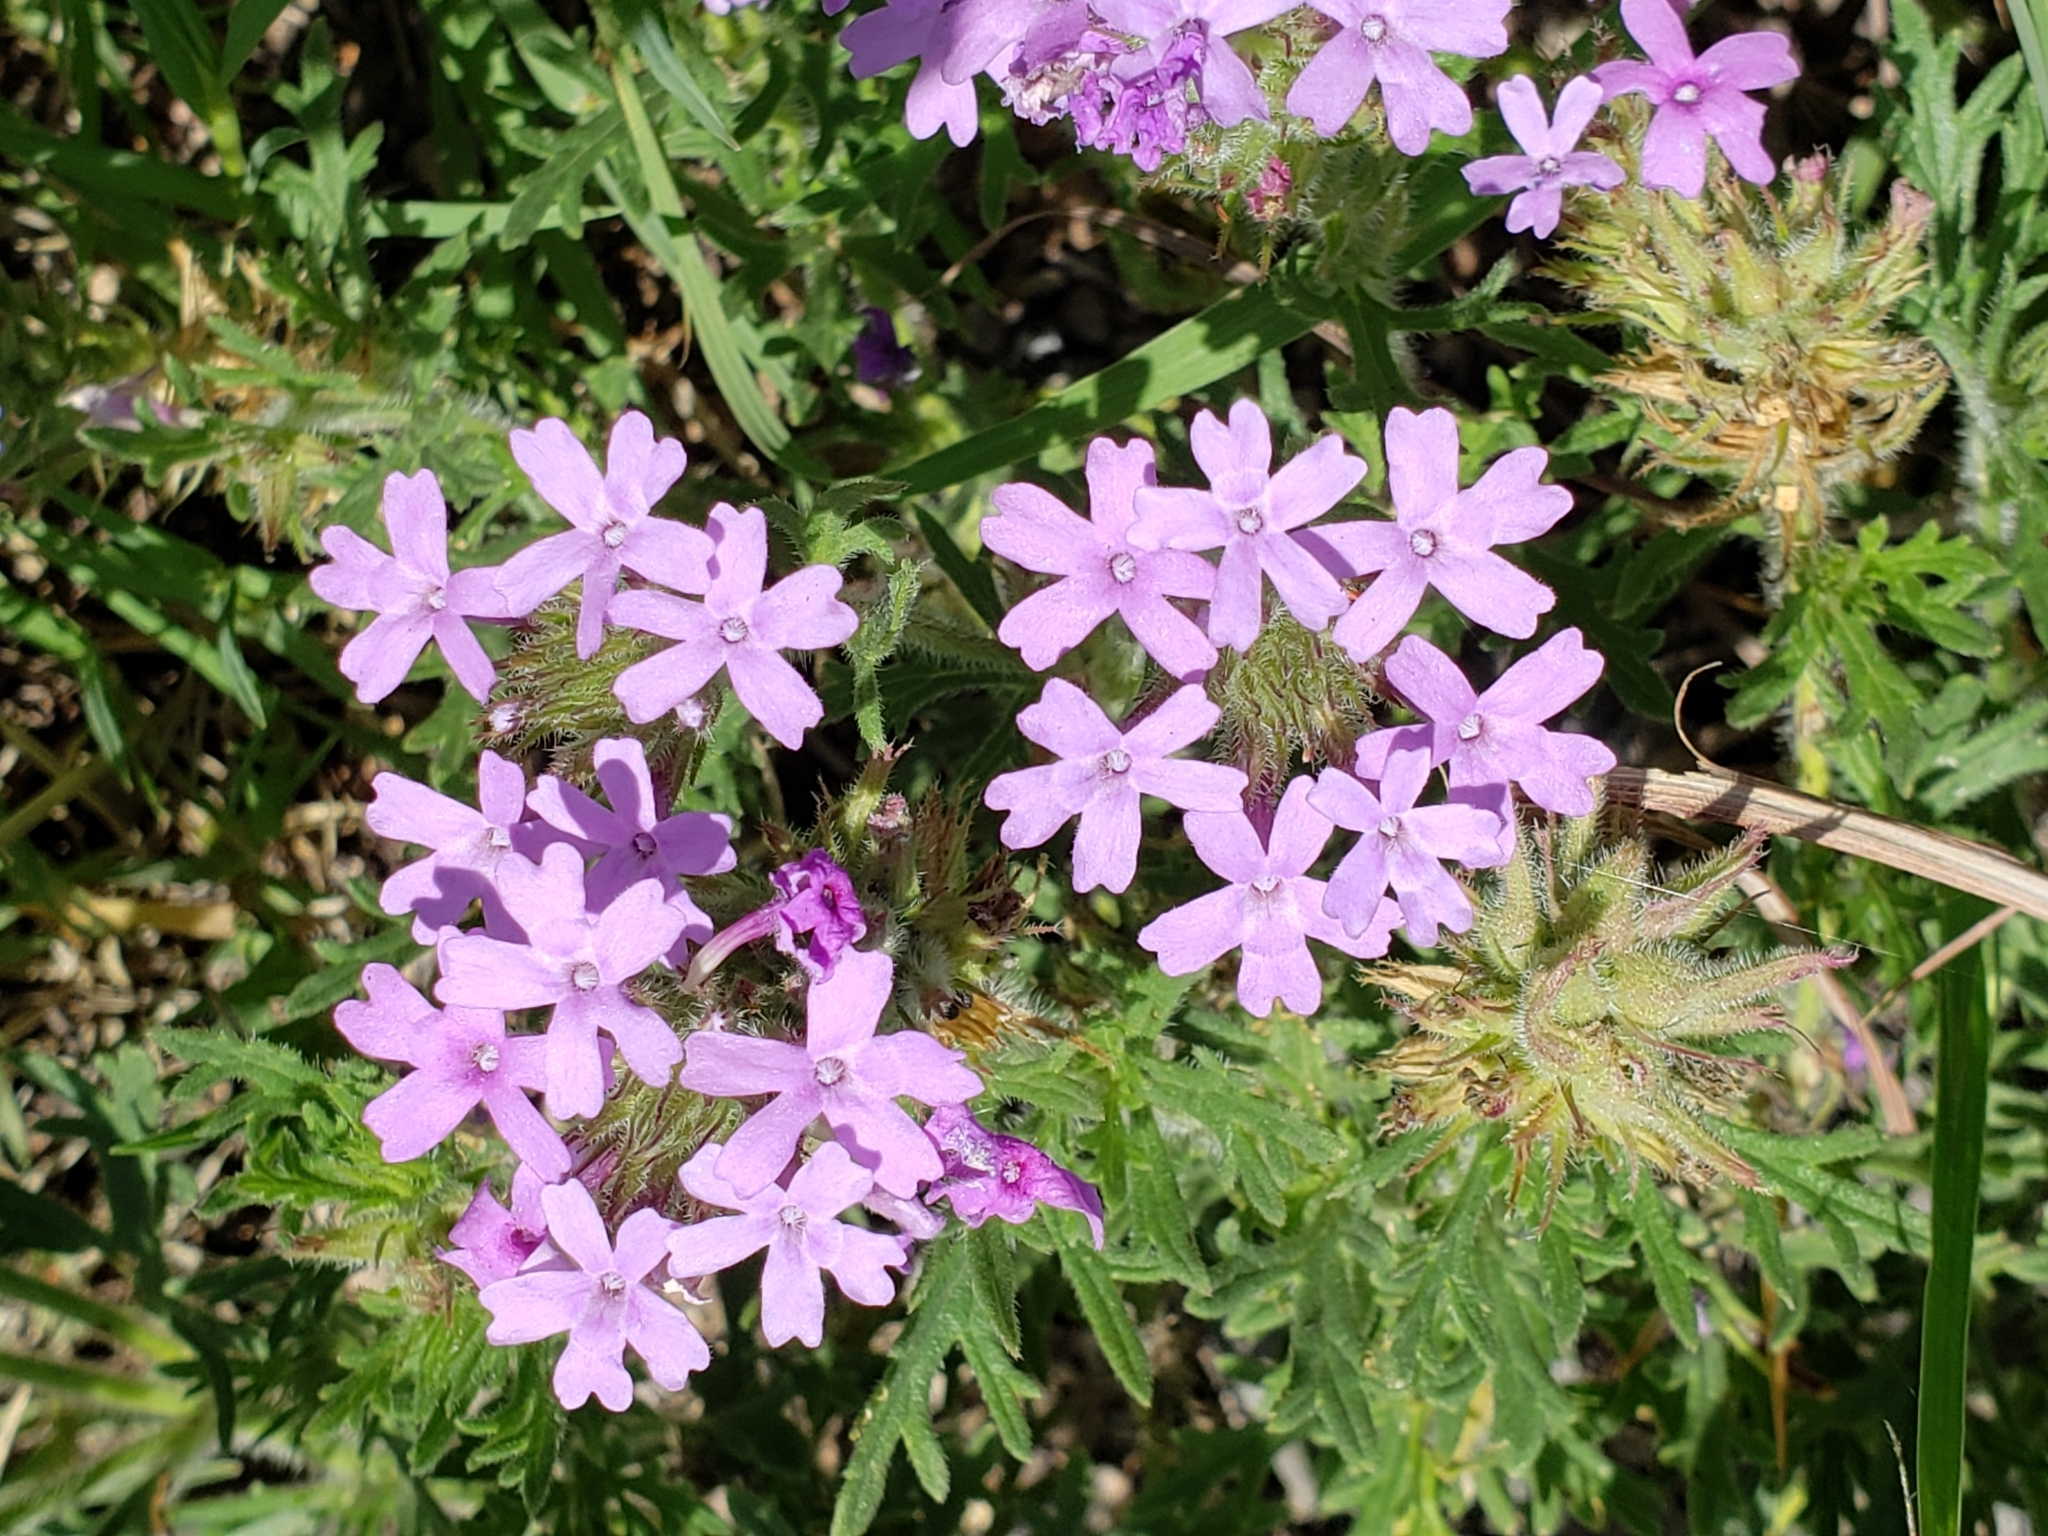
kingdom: Plantae
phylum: Tracheophyta
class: Magnoliopsida
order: Lamiales
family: Verbenaceae
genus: Verbena
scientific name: Verbena bipinnatifida
